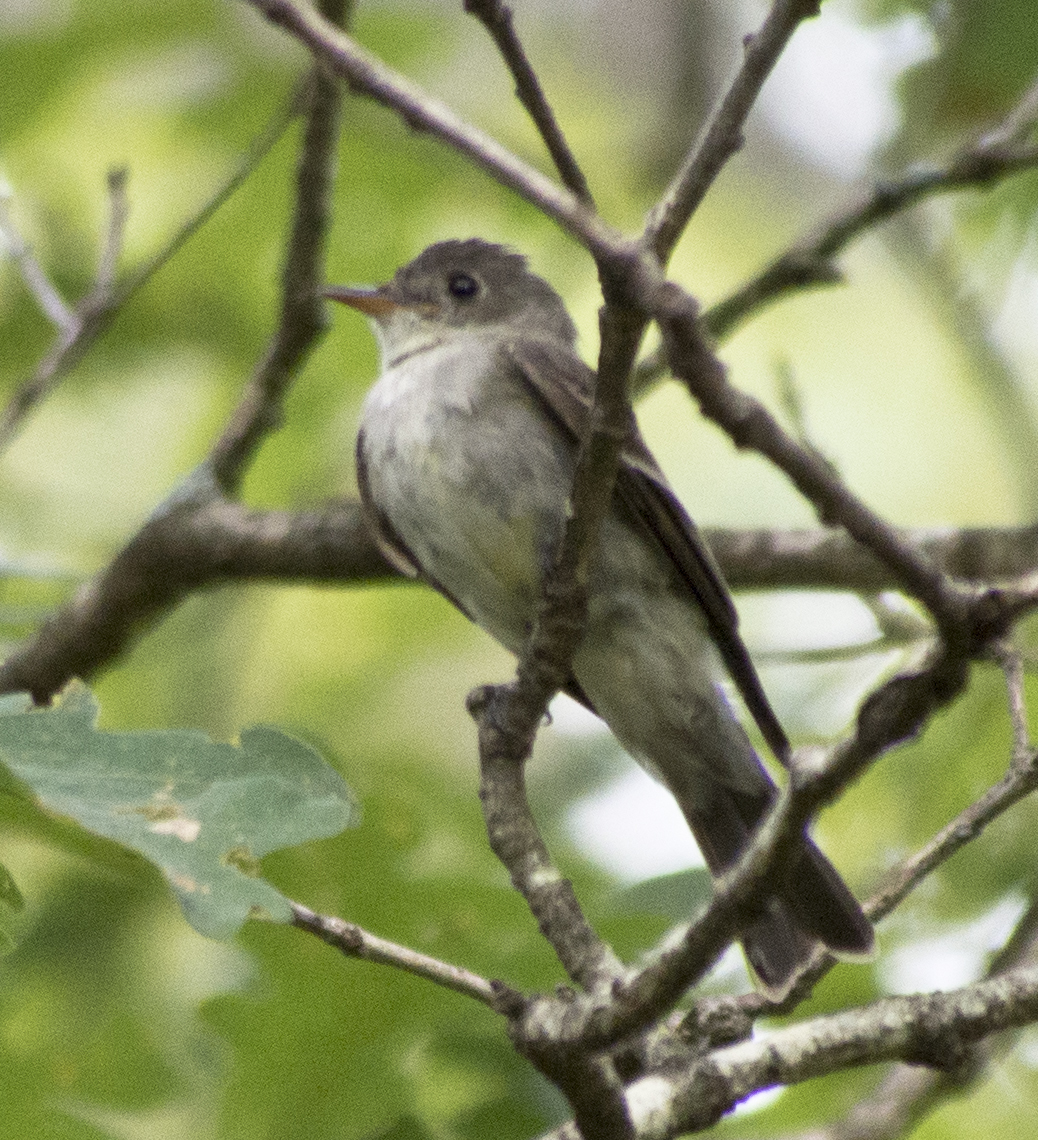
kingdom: Animalia
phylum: Chordata
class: Aves
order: Passeriformes
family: Tyrannidae
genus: Contopus
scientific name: Contopus virens
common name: Eastern wood-pewee
